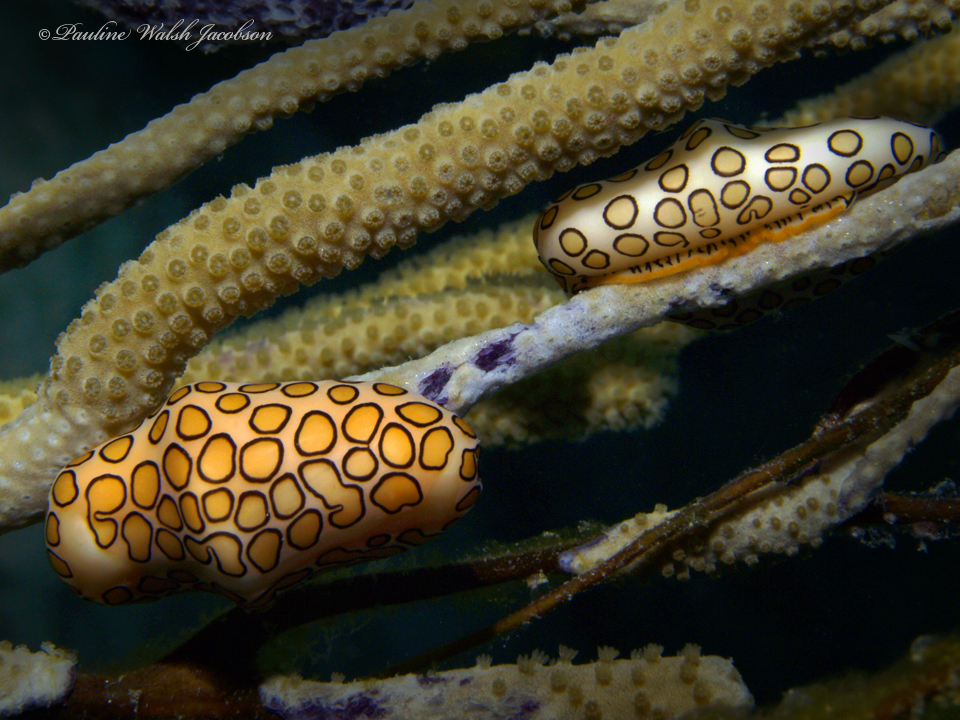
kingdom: Animalia
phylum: Mollusca
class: Gastropoda
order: Littorinimorpha
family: Ovulidae
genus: Cyphoma
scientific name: Cyphoma gibbosum
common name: Flamingo tongue
